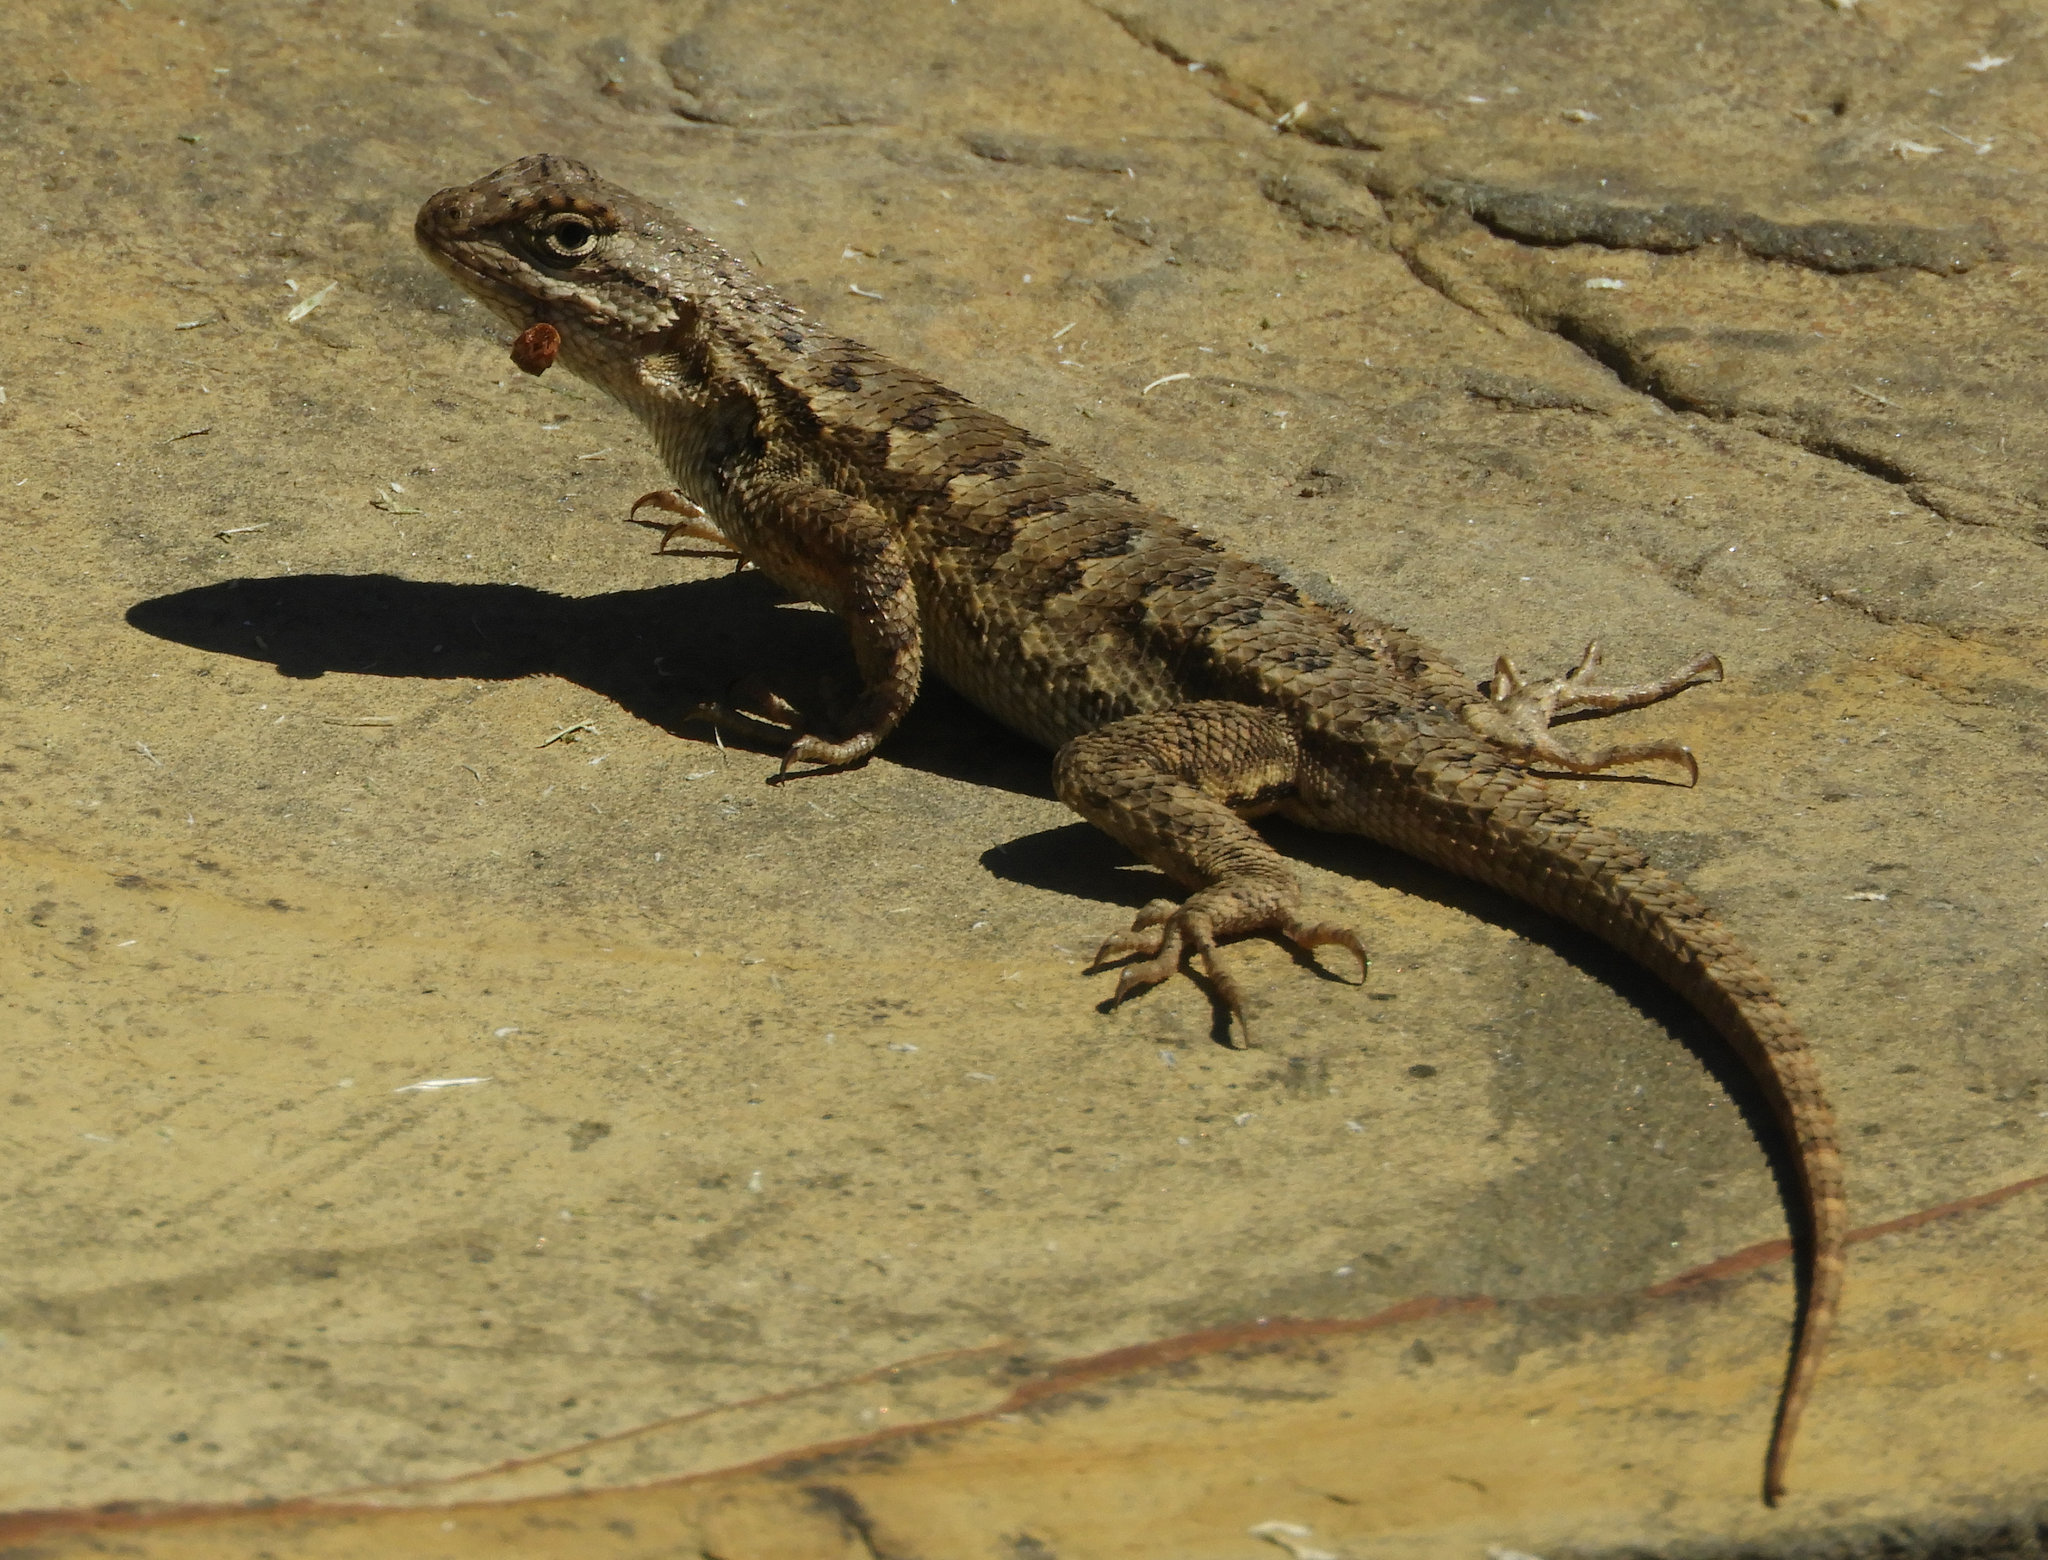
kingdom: Animalia
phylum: Chordata
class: Squamata
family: Phrynosomatidae
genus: Sceloporus
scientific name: Sceloporus occidentalis
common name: Western fence lizard
